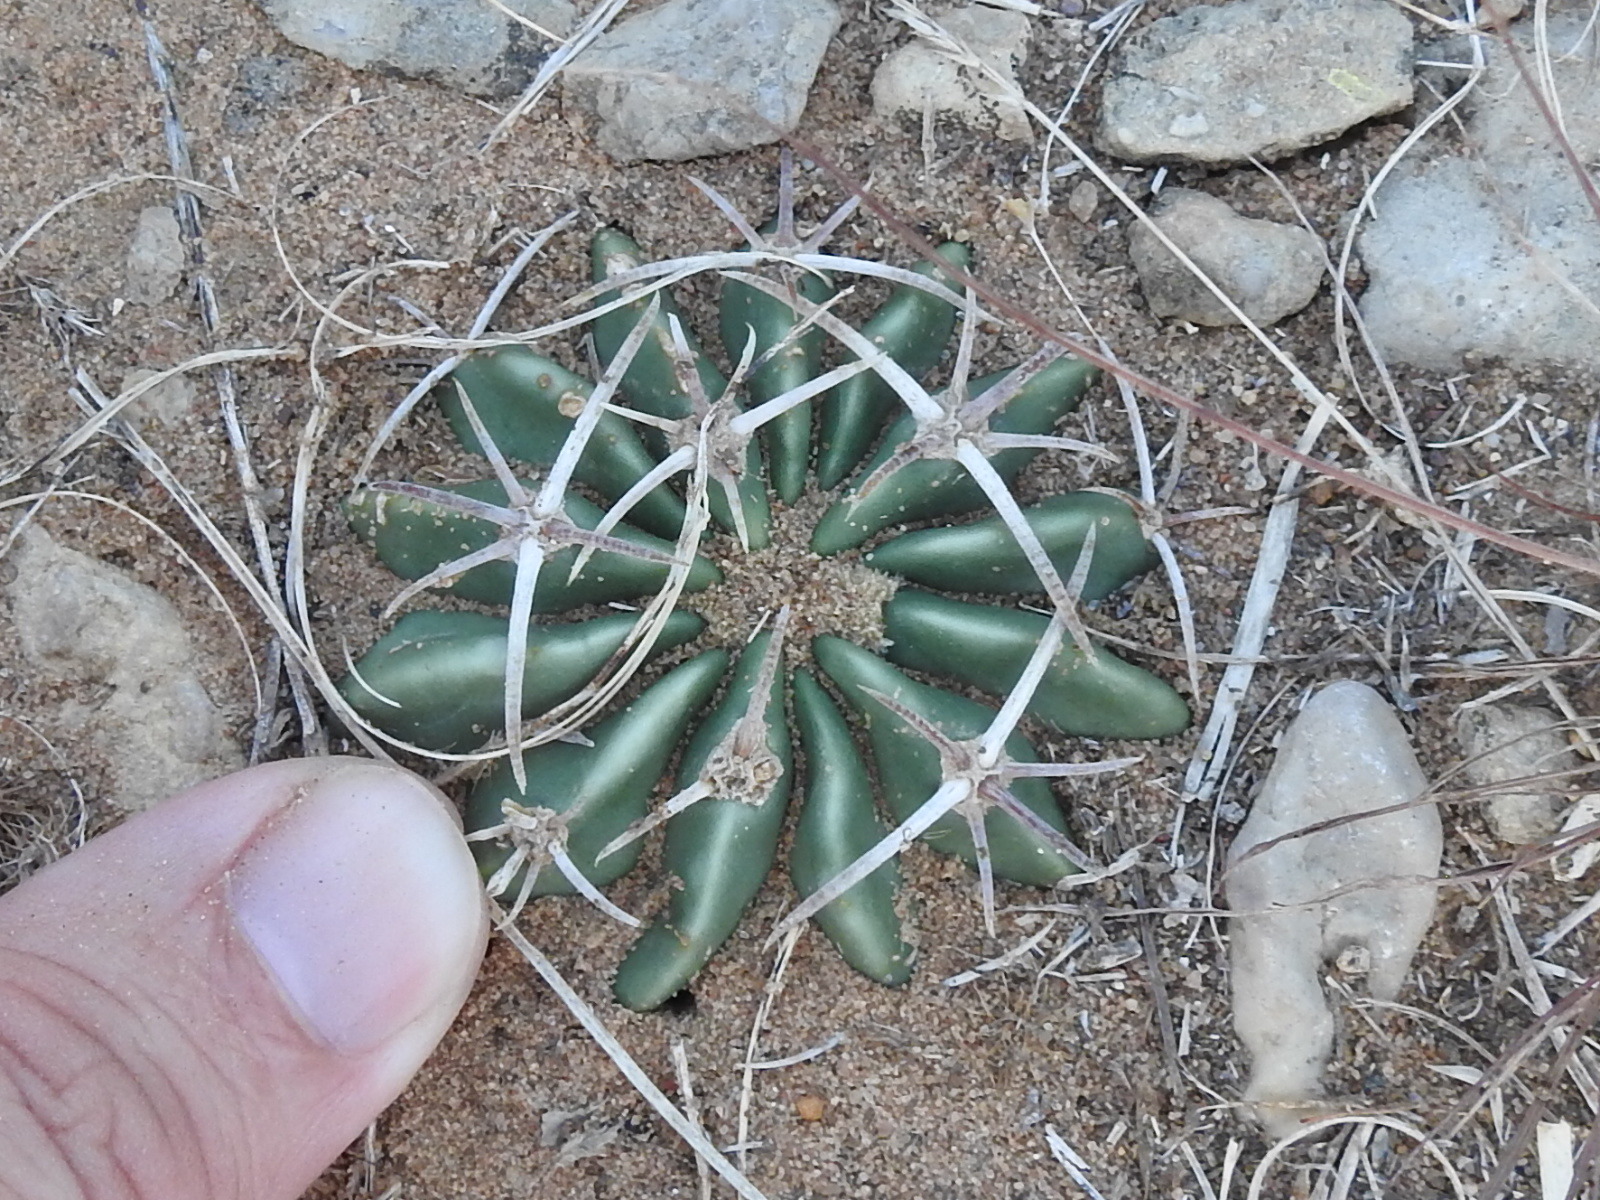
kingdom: Plantae
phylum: Tracheophyta
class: Magnoliopsida
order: Caryophyllales
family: Cactaceae
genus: Echinocactus
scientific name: Echinocactus texensis
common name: Devil's pincushion
